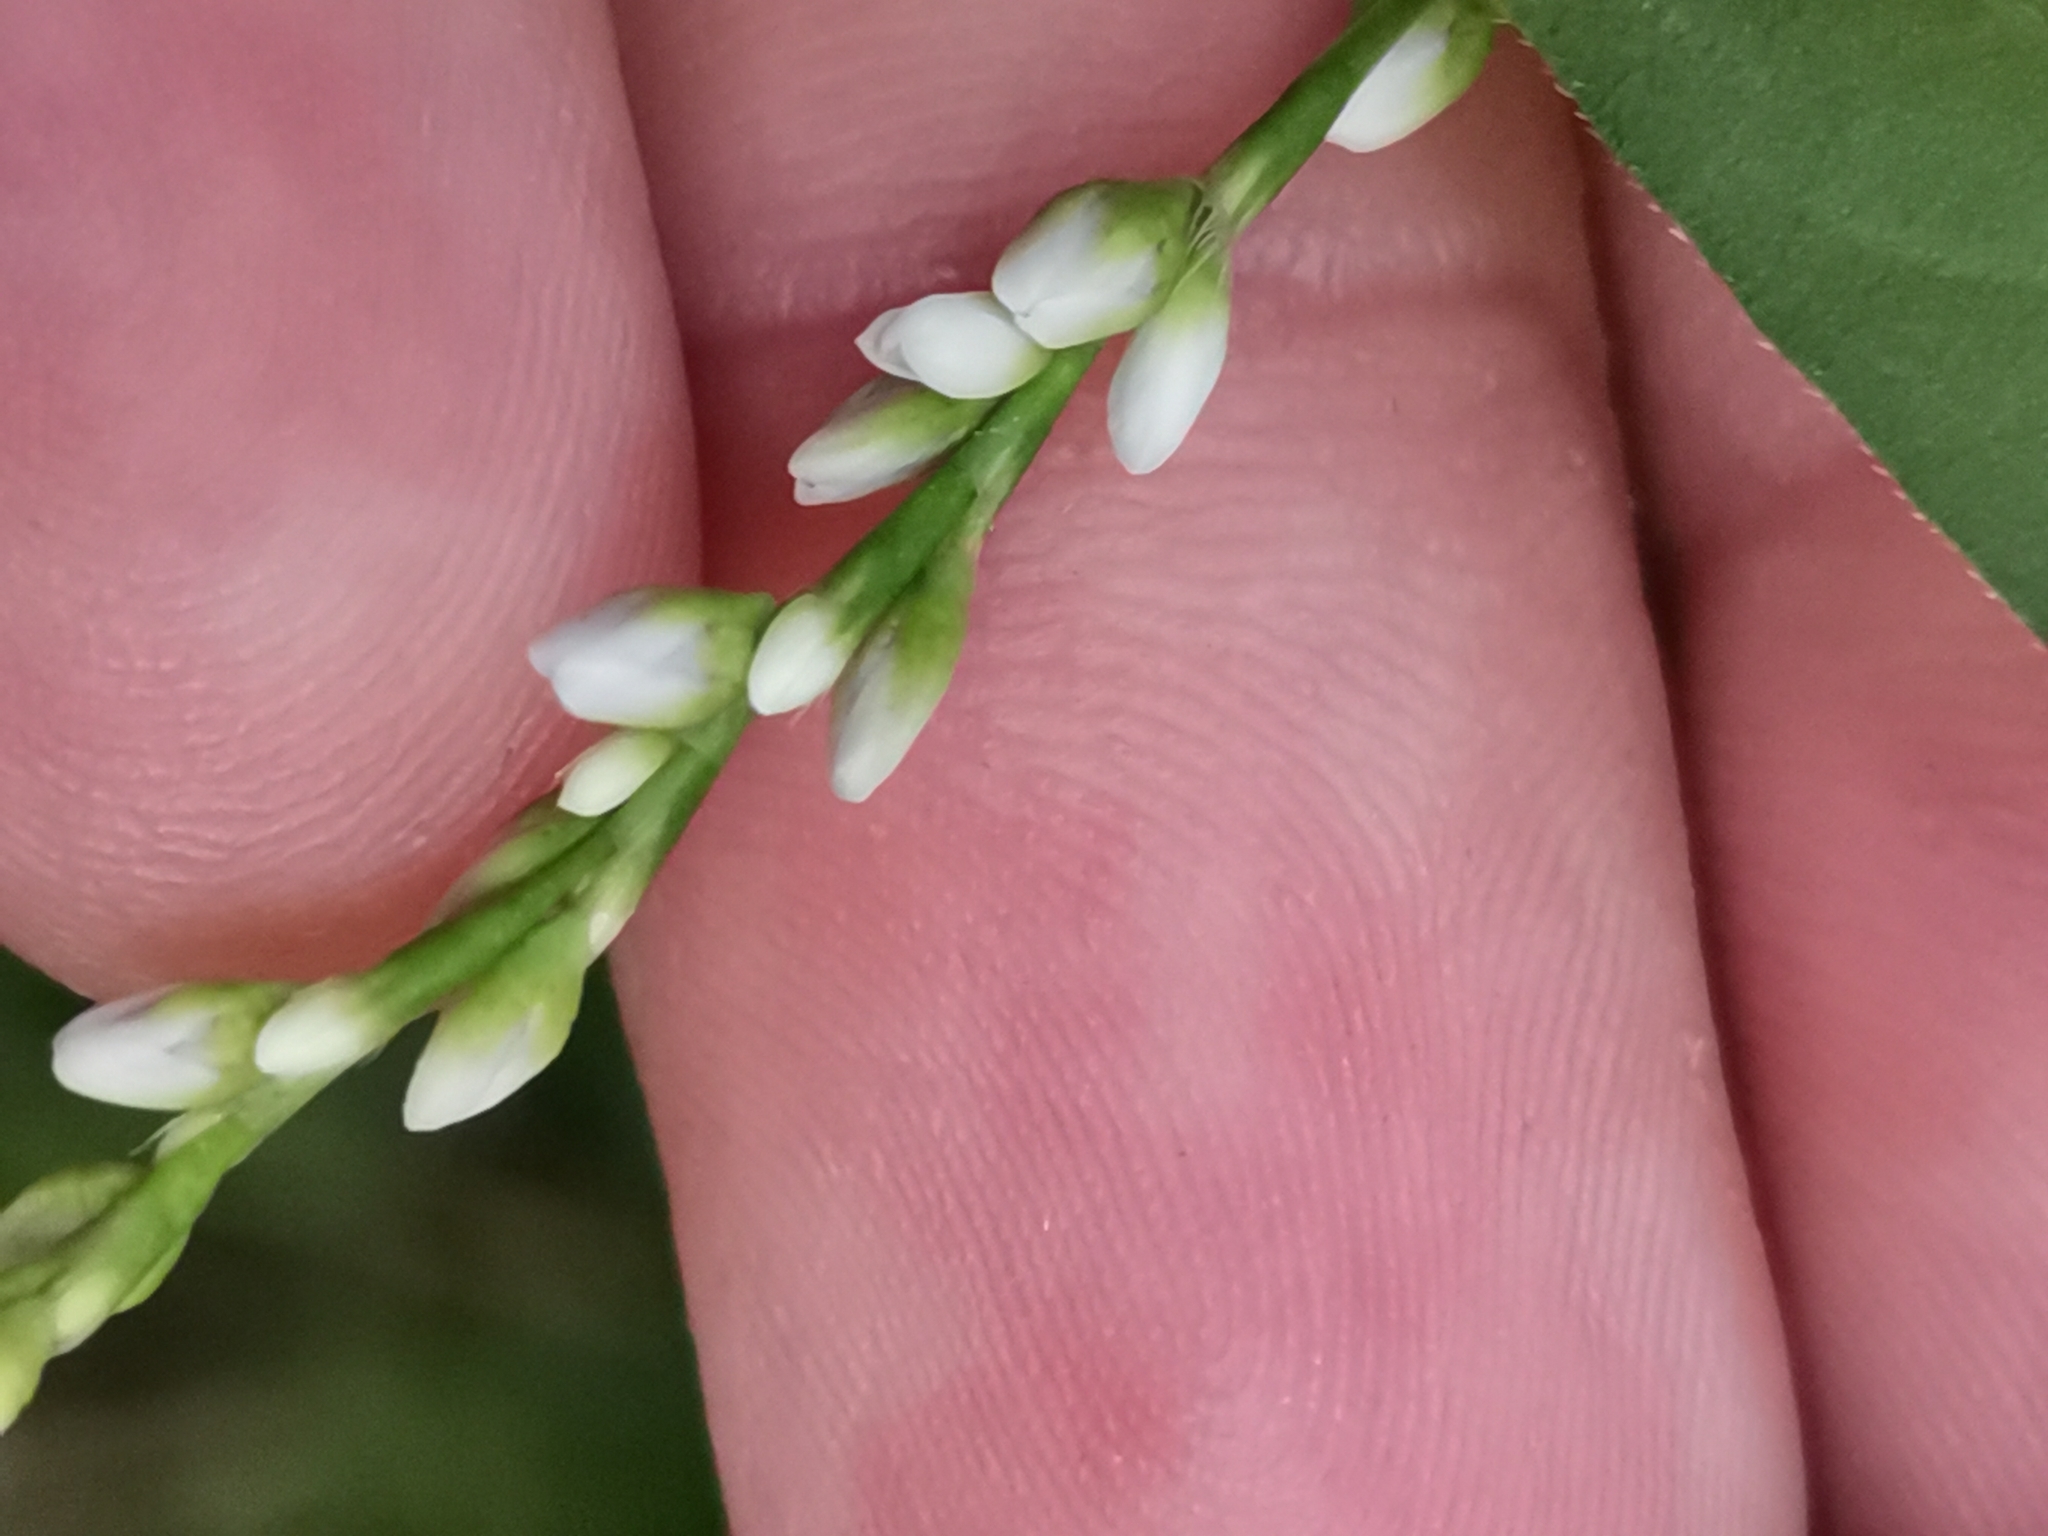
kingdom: Plantae
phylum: Tracheophyta
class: Magnoliopsida
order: Caryophyllales
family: Polygonaceae
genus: Persicaria
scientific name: Persicaria mitis
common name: Tasteless water-pepper
